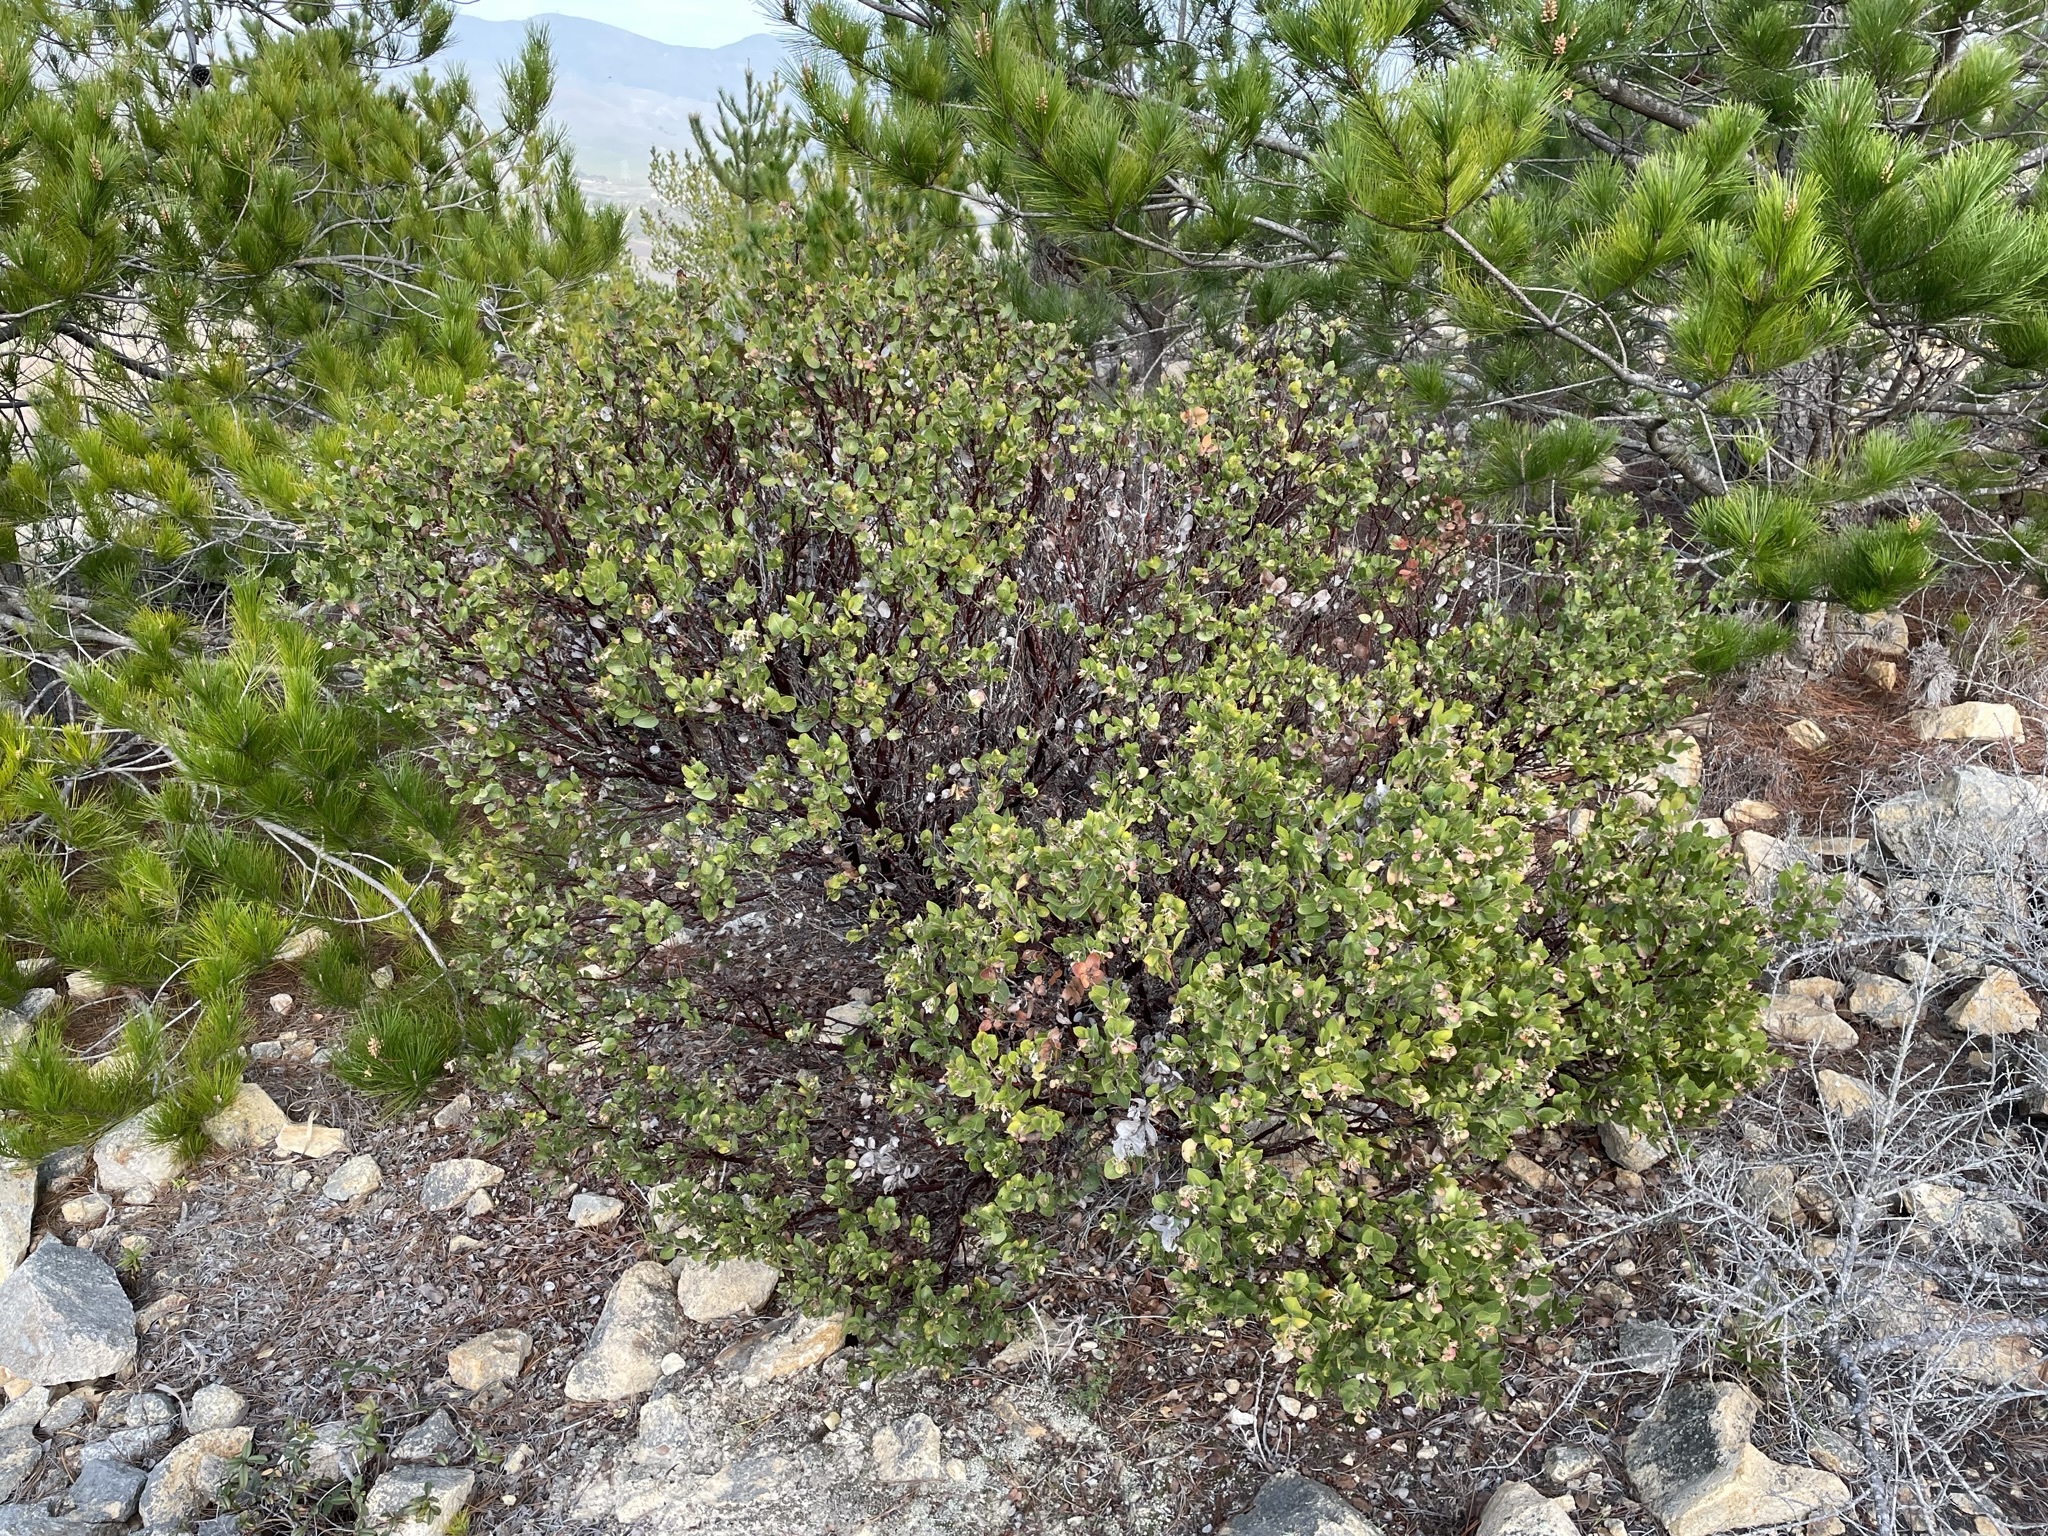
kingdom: Plantae
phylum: Tracheophyta
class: Magnoliopsida
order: Ericales
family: Ericaceae
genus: Arctostaphylos
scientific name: Arctostaphylos osoensis
